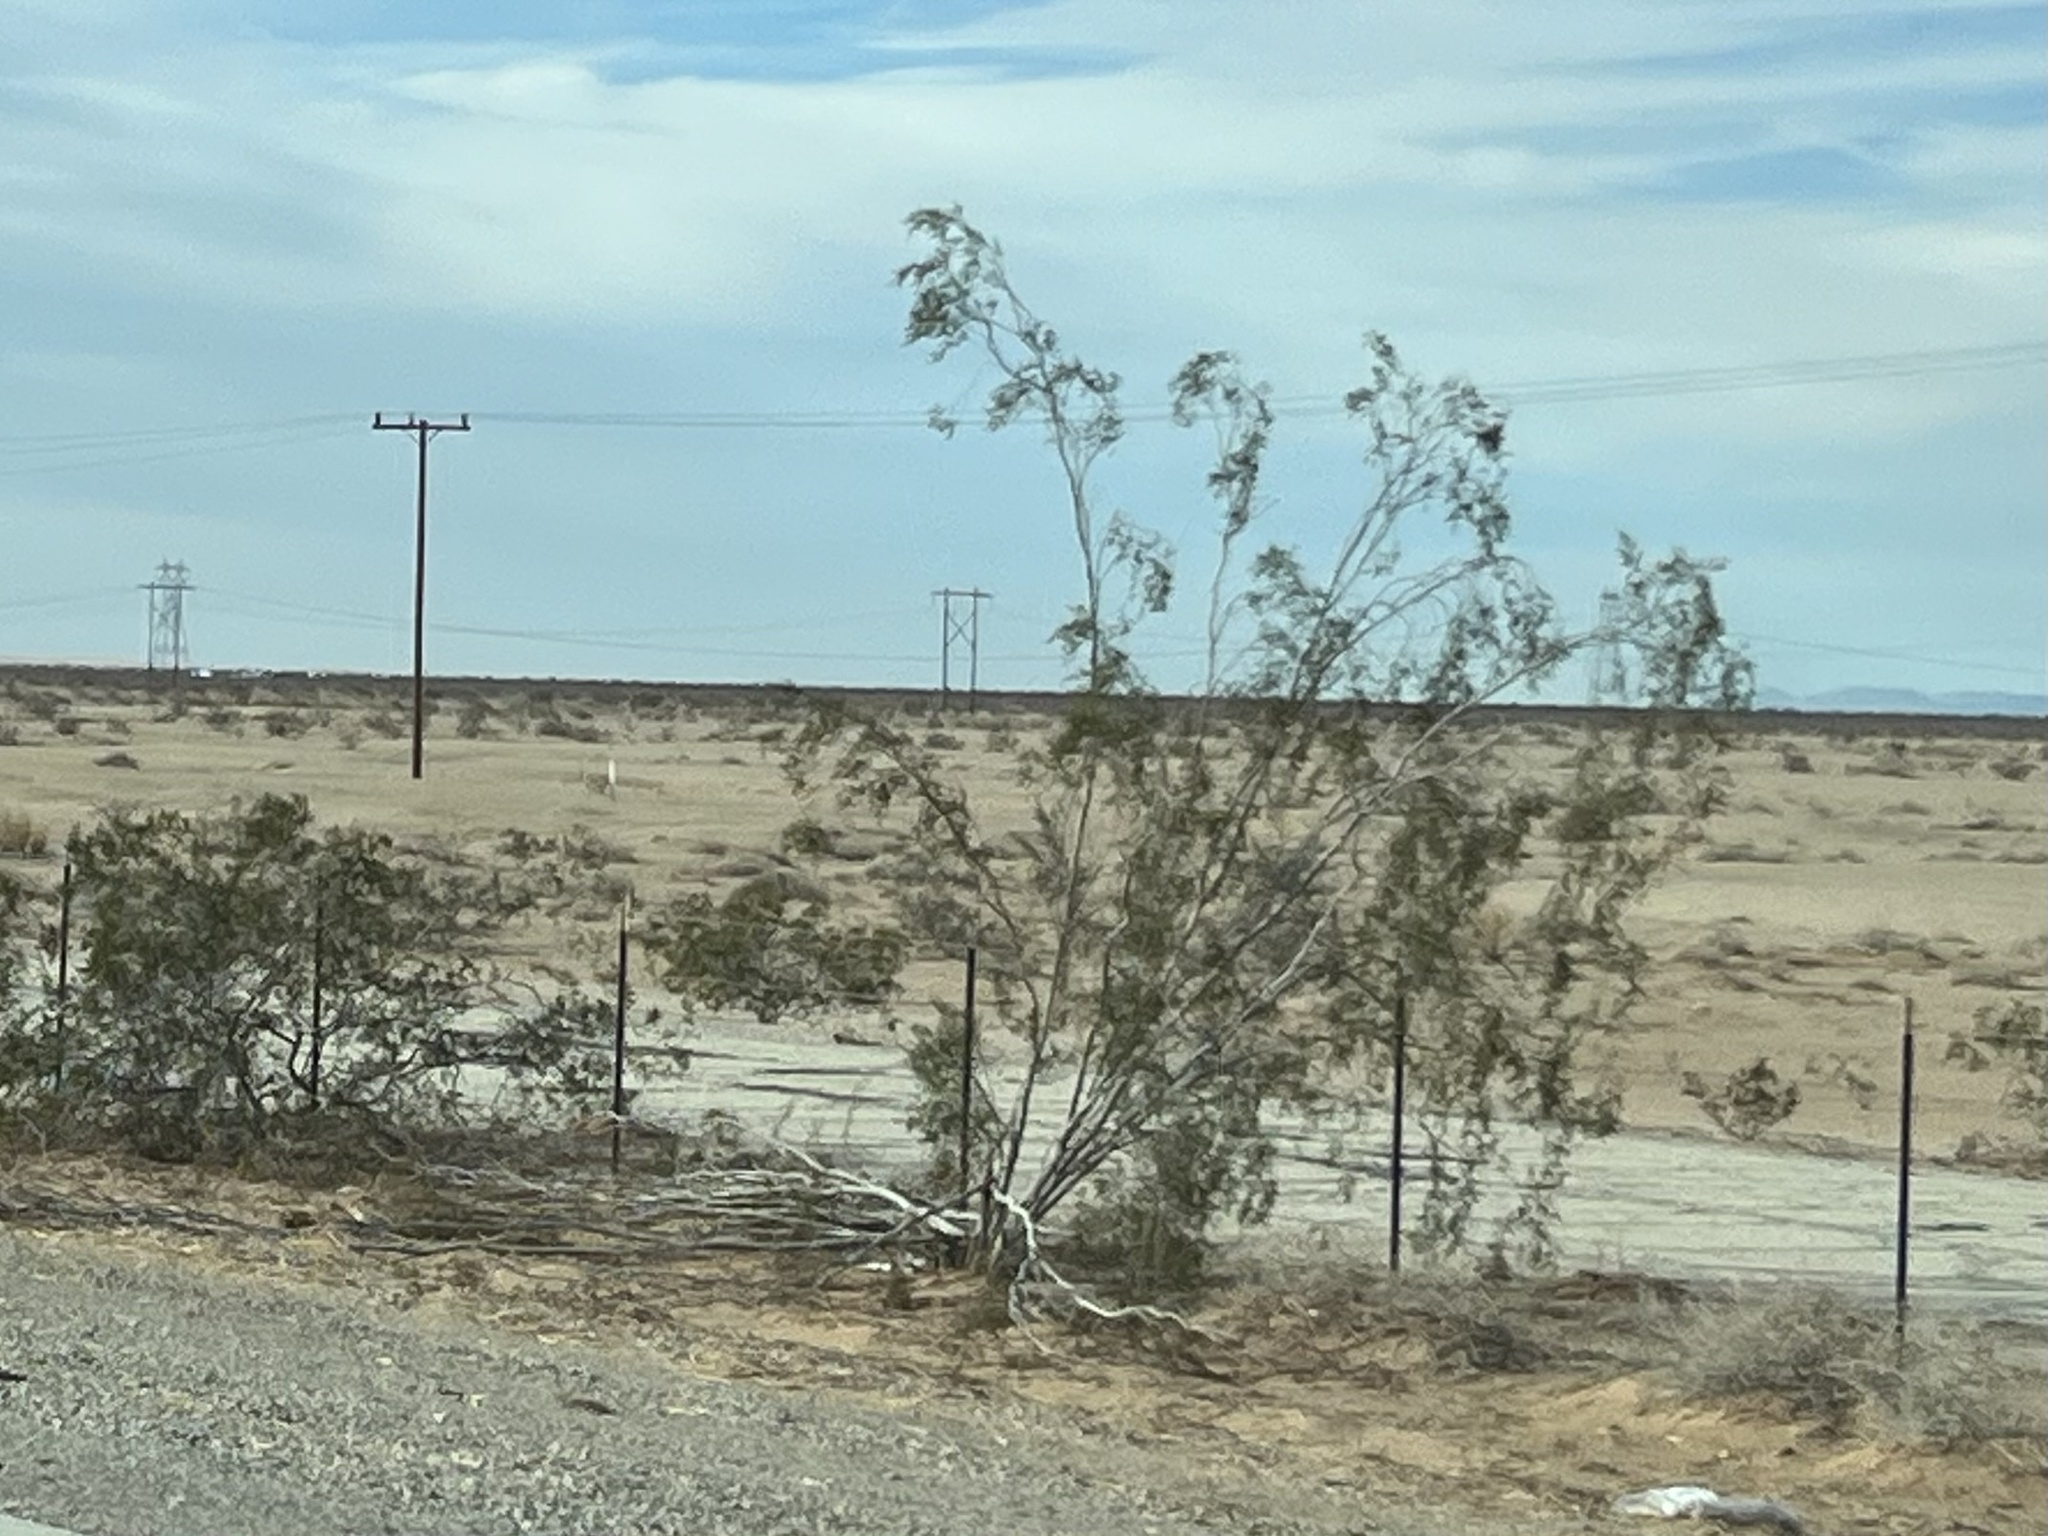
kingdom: Plantae
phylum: Tracheophyta
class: Magnoliopsida
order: Zygophyllales
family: Zygophyllaceae
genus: Larrea
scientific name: Larrea tridentata
